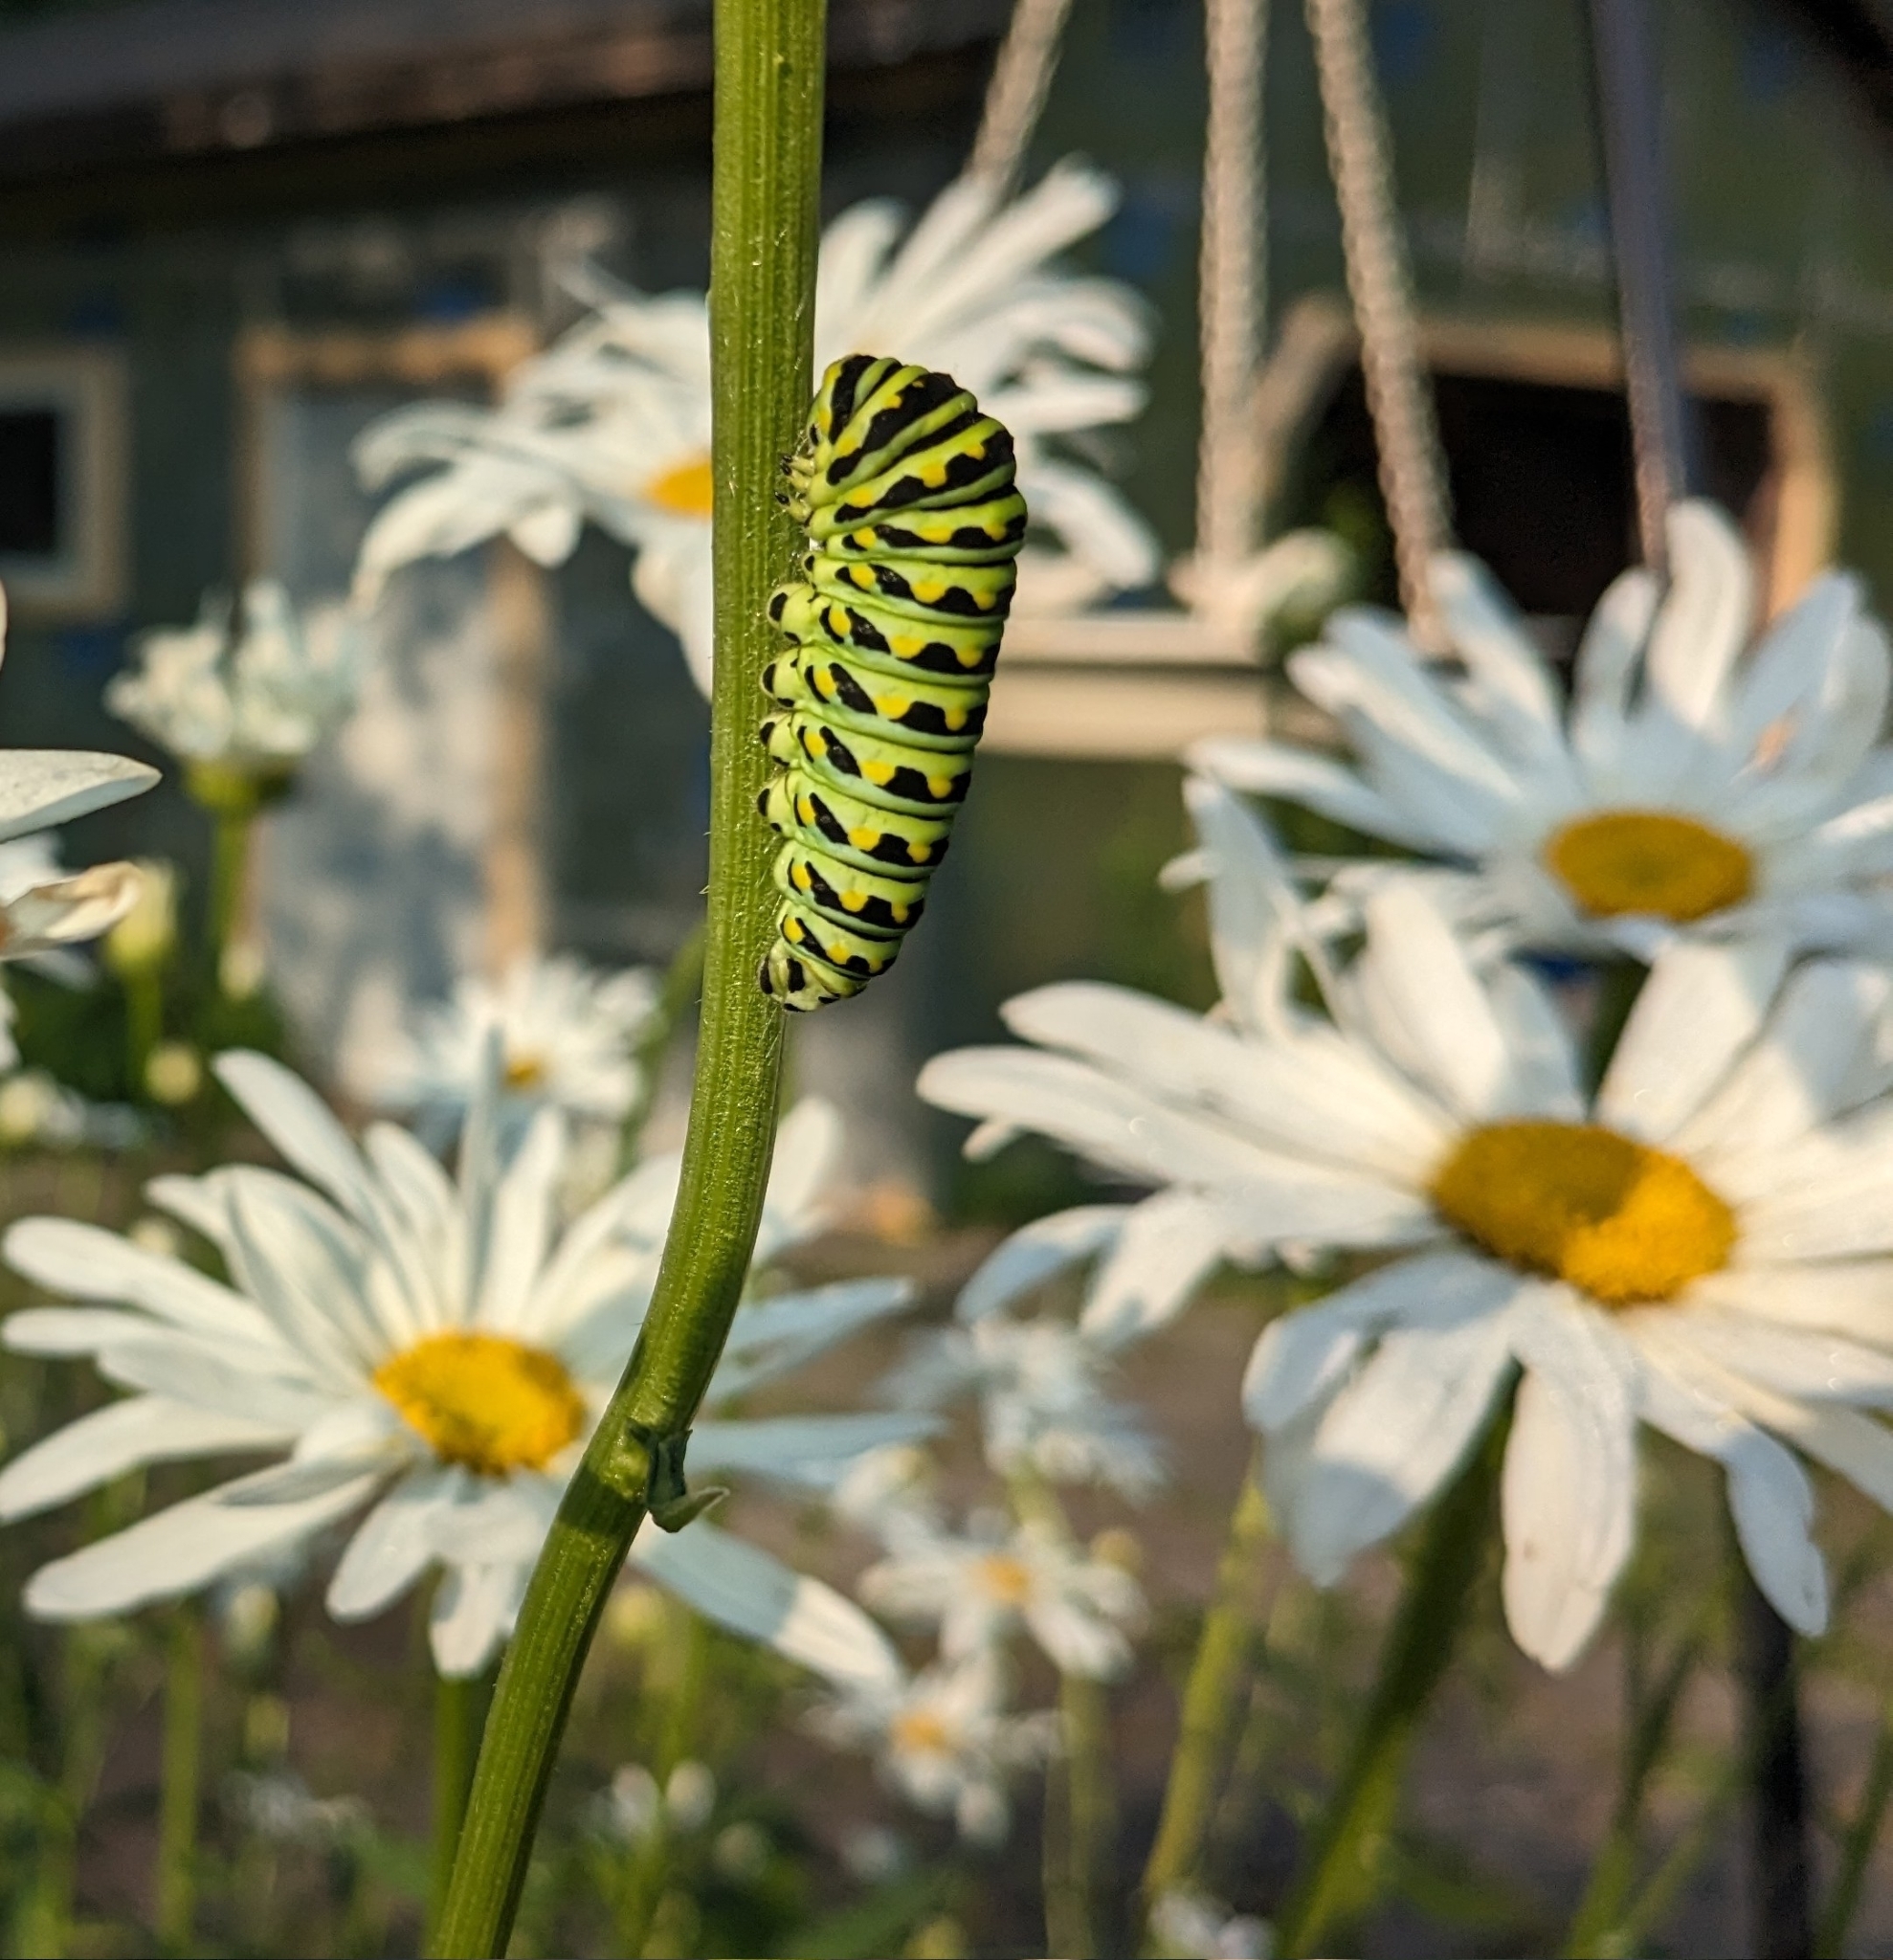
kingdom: Animalia
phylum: Arthropoda
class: Insecta
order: Lepidoptera
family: Papilionidae
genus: Papilio
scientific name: Papilio polyxenes
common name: Black swallowtail
